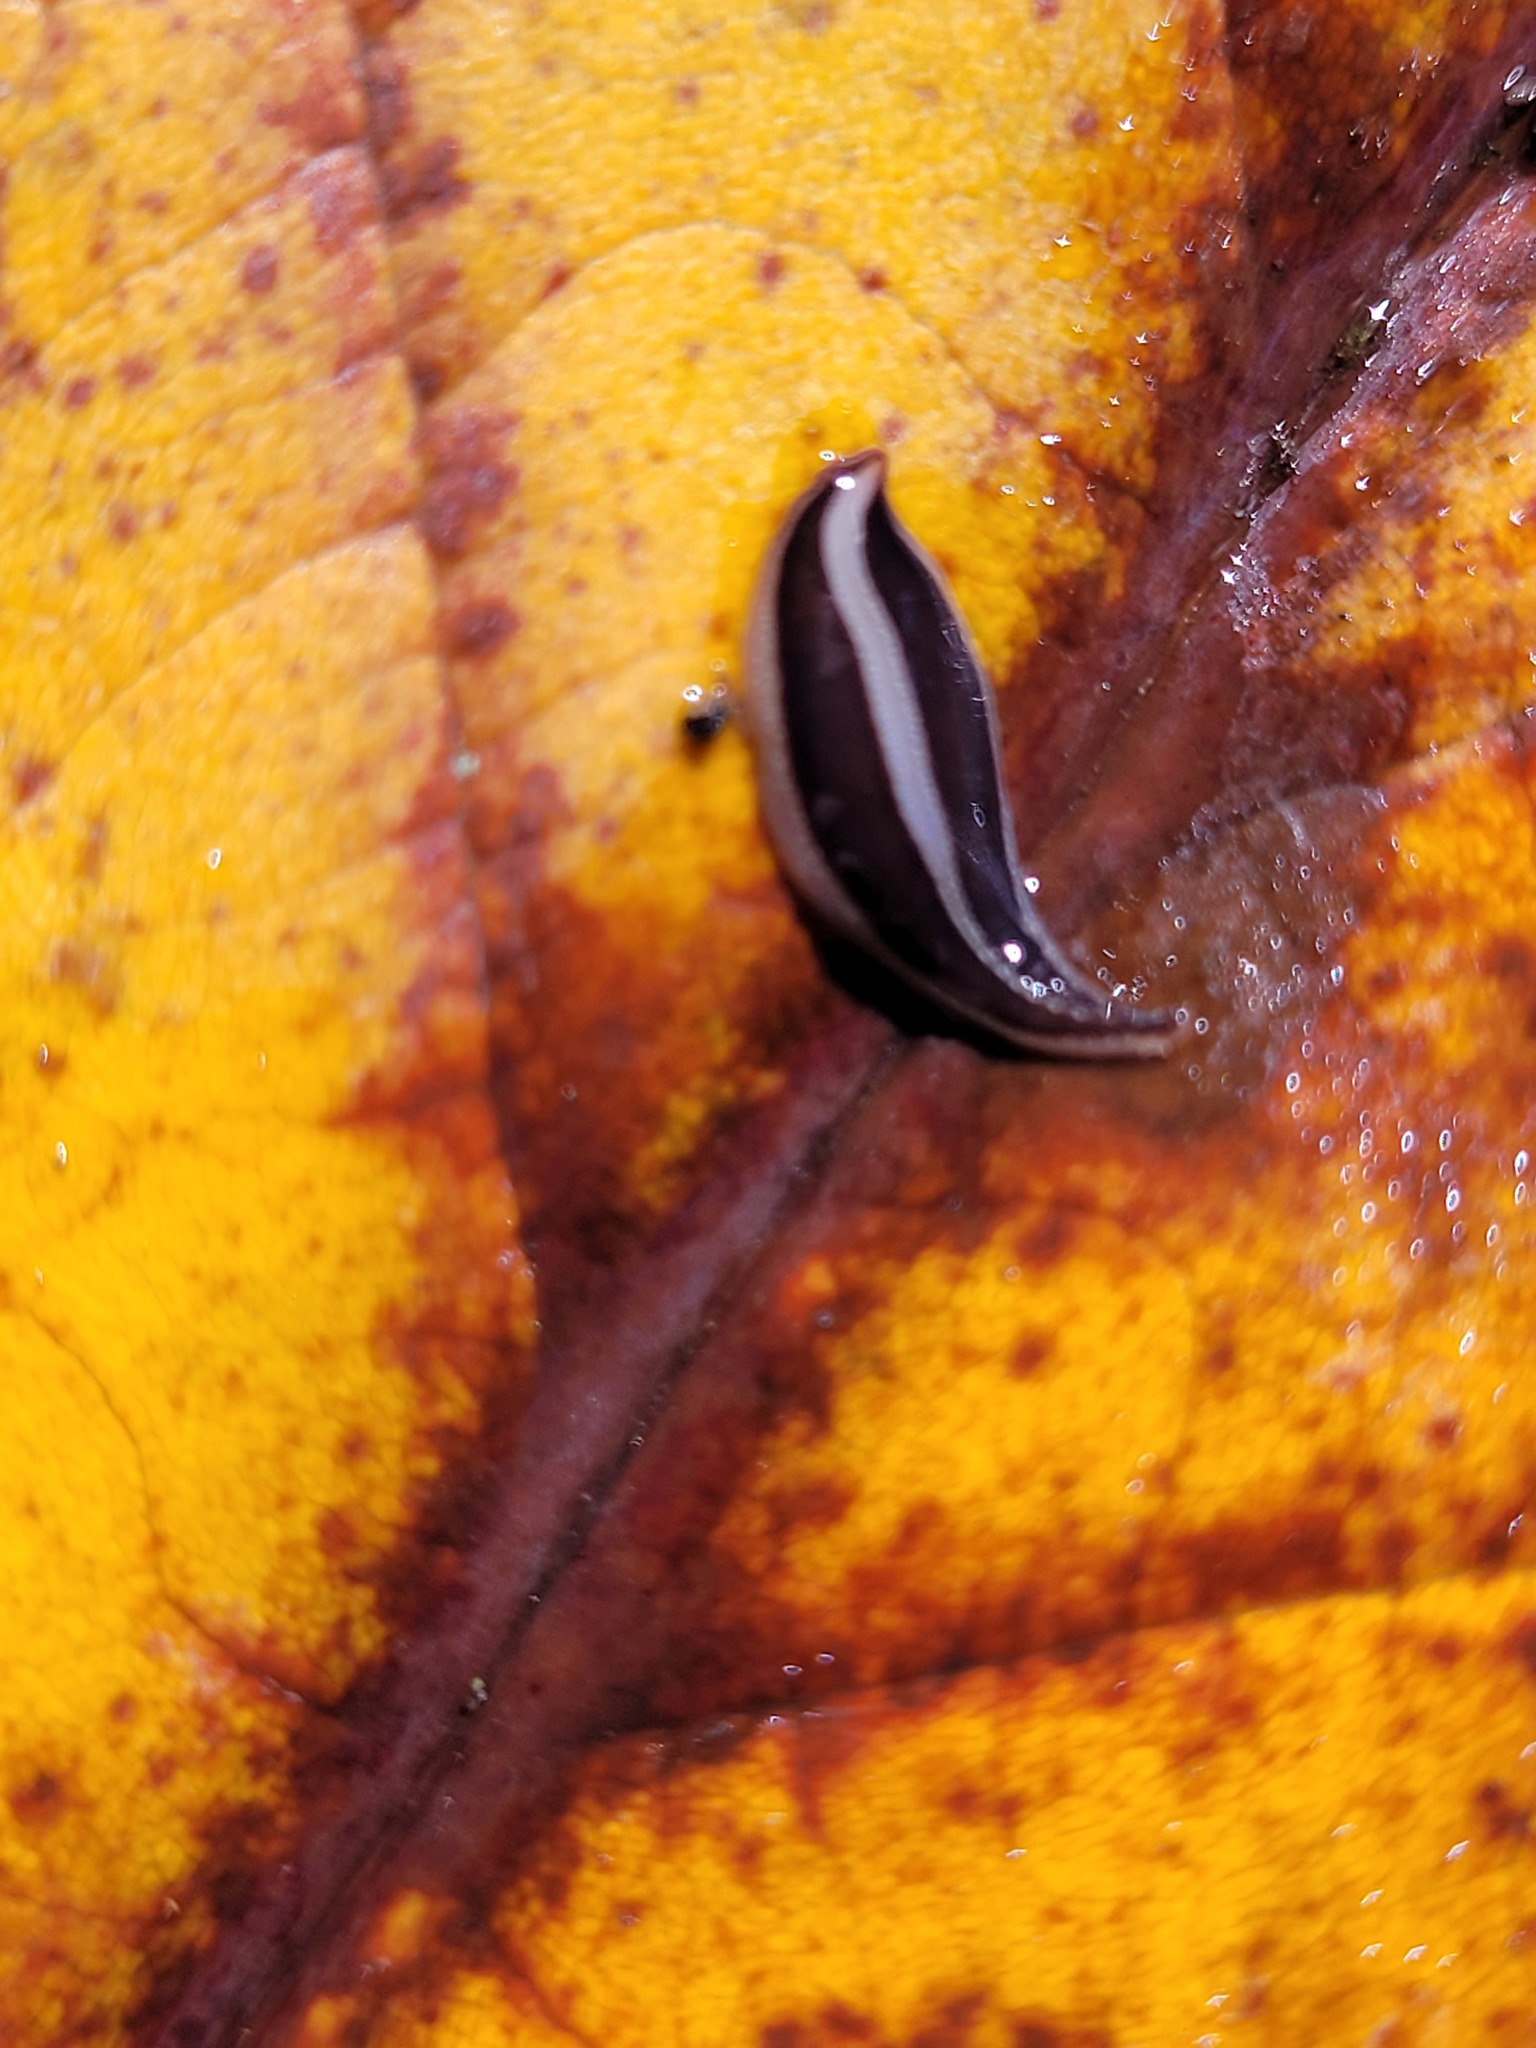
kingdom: Animalia
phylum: Platyhelminthes
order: Tricladida
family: Geoplanidae
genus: Australopacifica
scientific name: Australopacifica splendens
